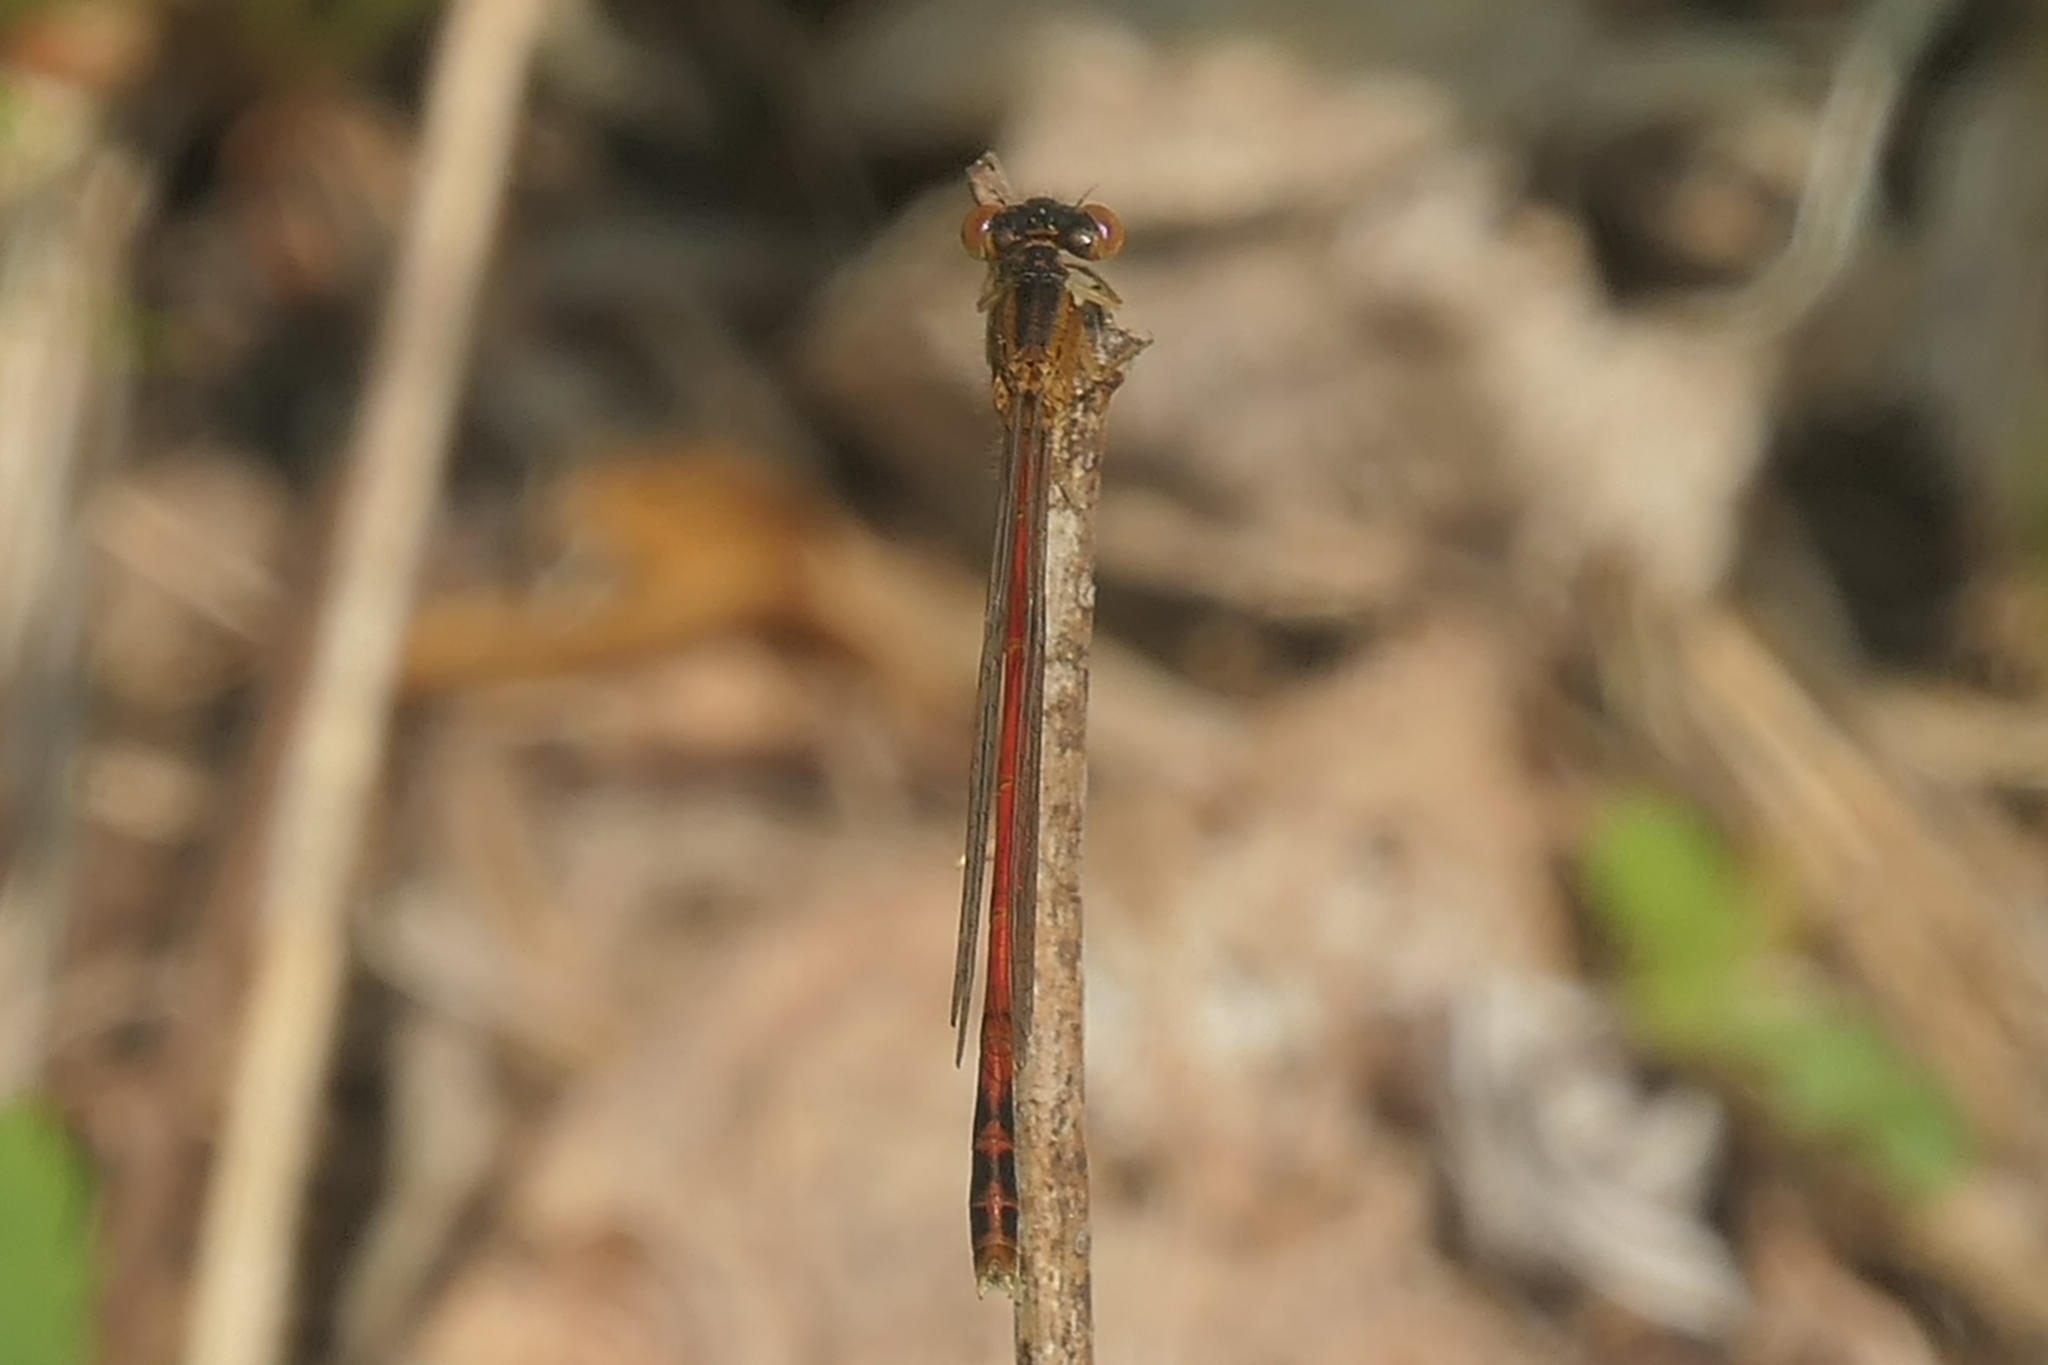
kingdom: Animalia
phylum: Arthropoda
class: Insecta
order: Odonata
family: Coenagrionidae
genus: Amphiagrion
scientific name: Amphiagrion saucium
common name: Eastern red damsel
